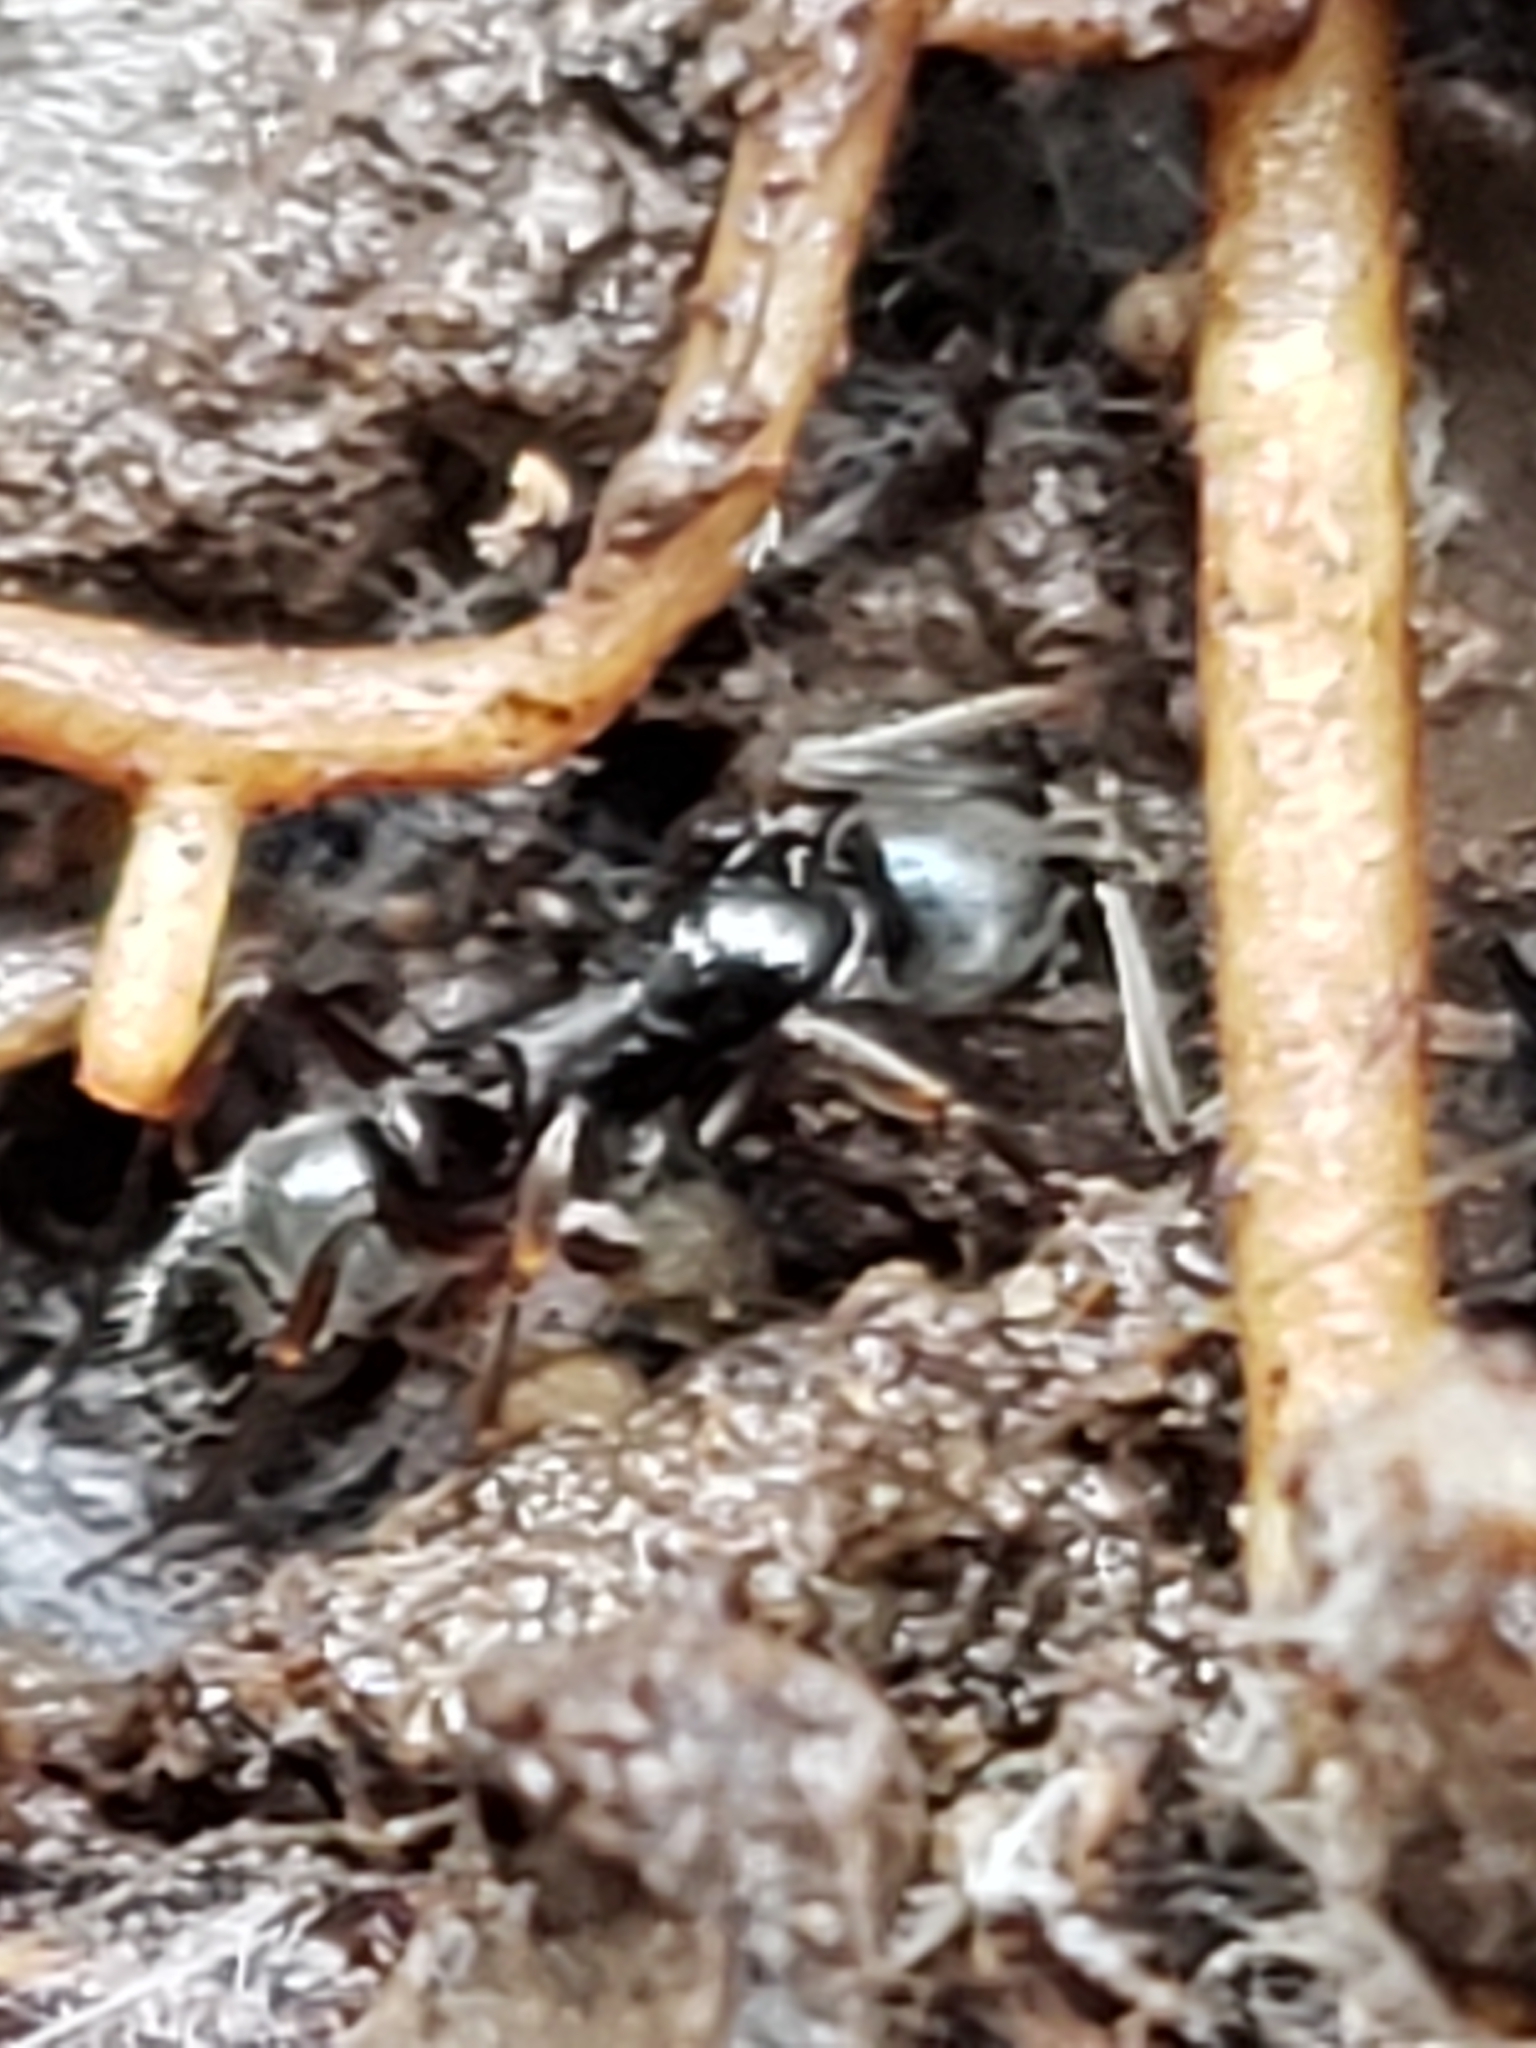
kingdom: Animalia
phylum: Arthropoda
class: Insecta
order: Hymenoptera
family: Formicidae
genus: Pachycondyla
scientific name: Pachycondyla chinensis
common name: Asian needle ant
